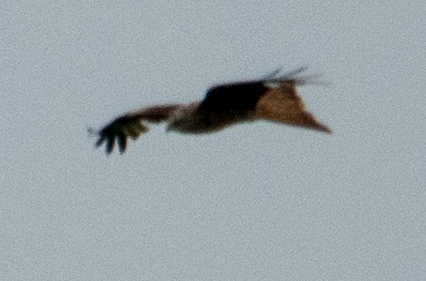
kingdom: Animalia
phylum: Chordata
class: Aves
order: Accipitriformes
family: Accipitridae
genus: Milvus
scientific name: Milvus migrans
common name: Black kite
